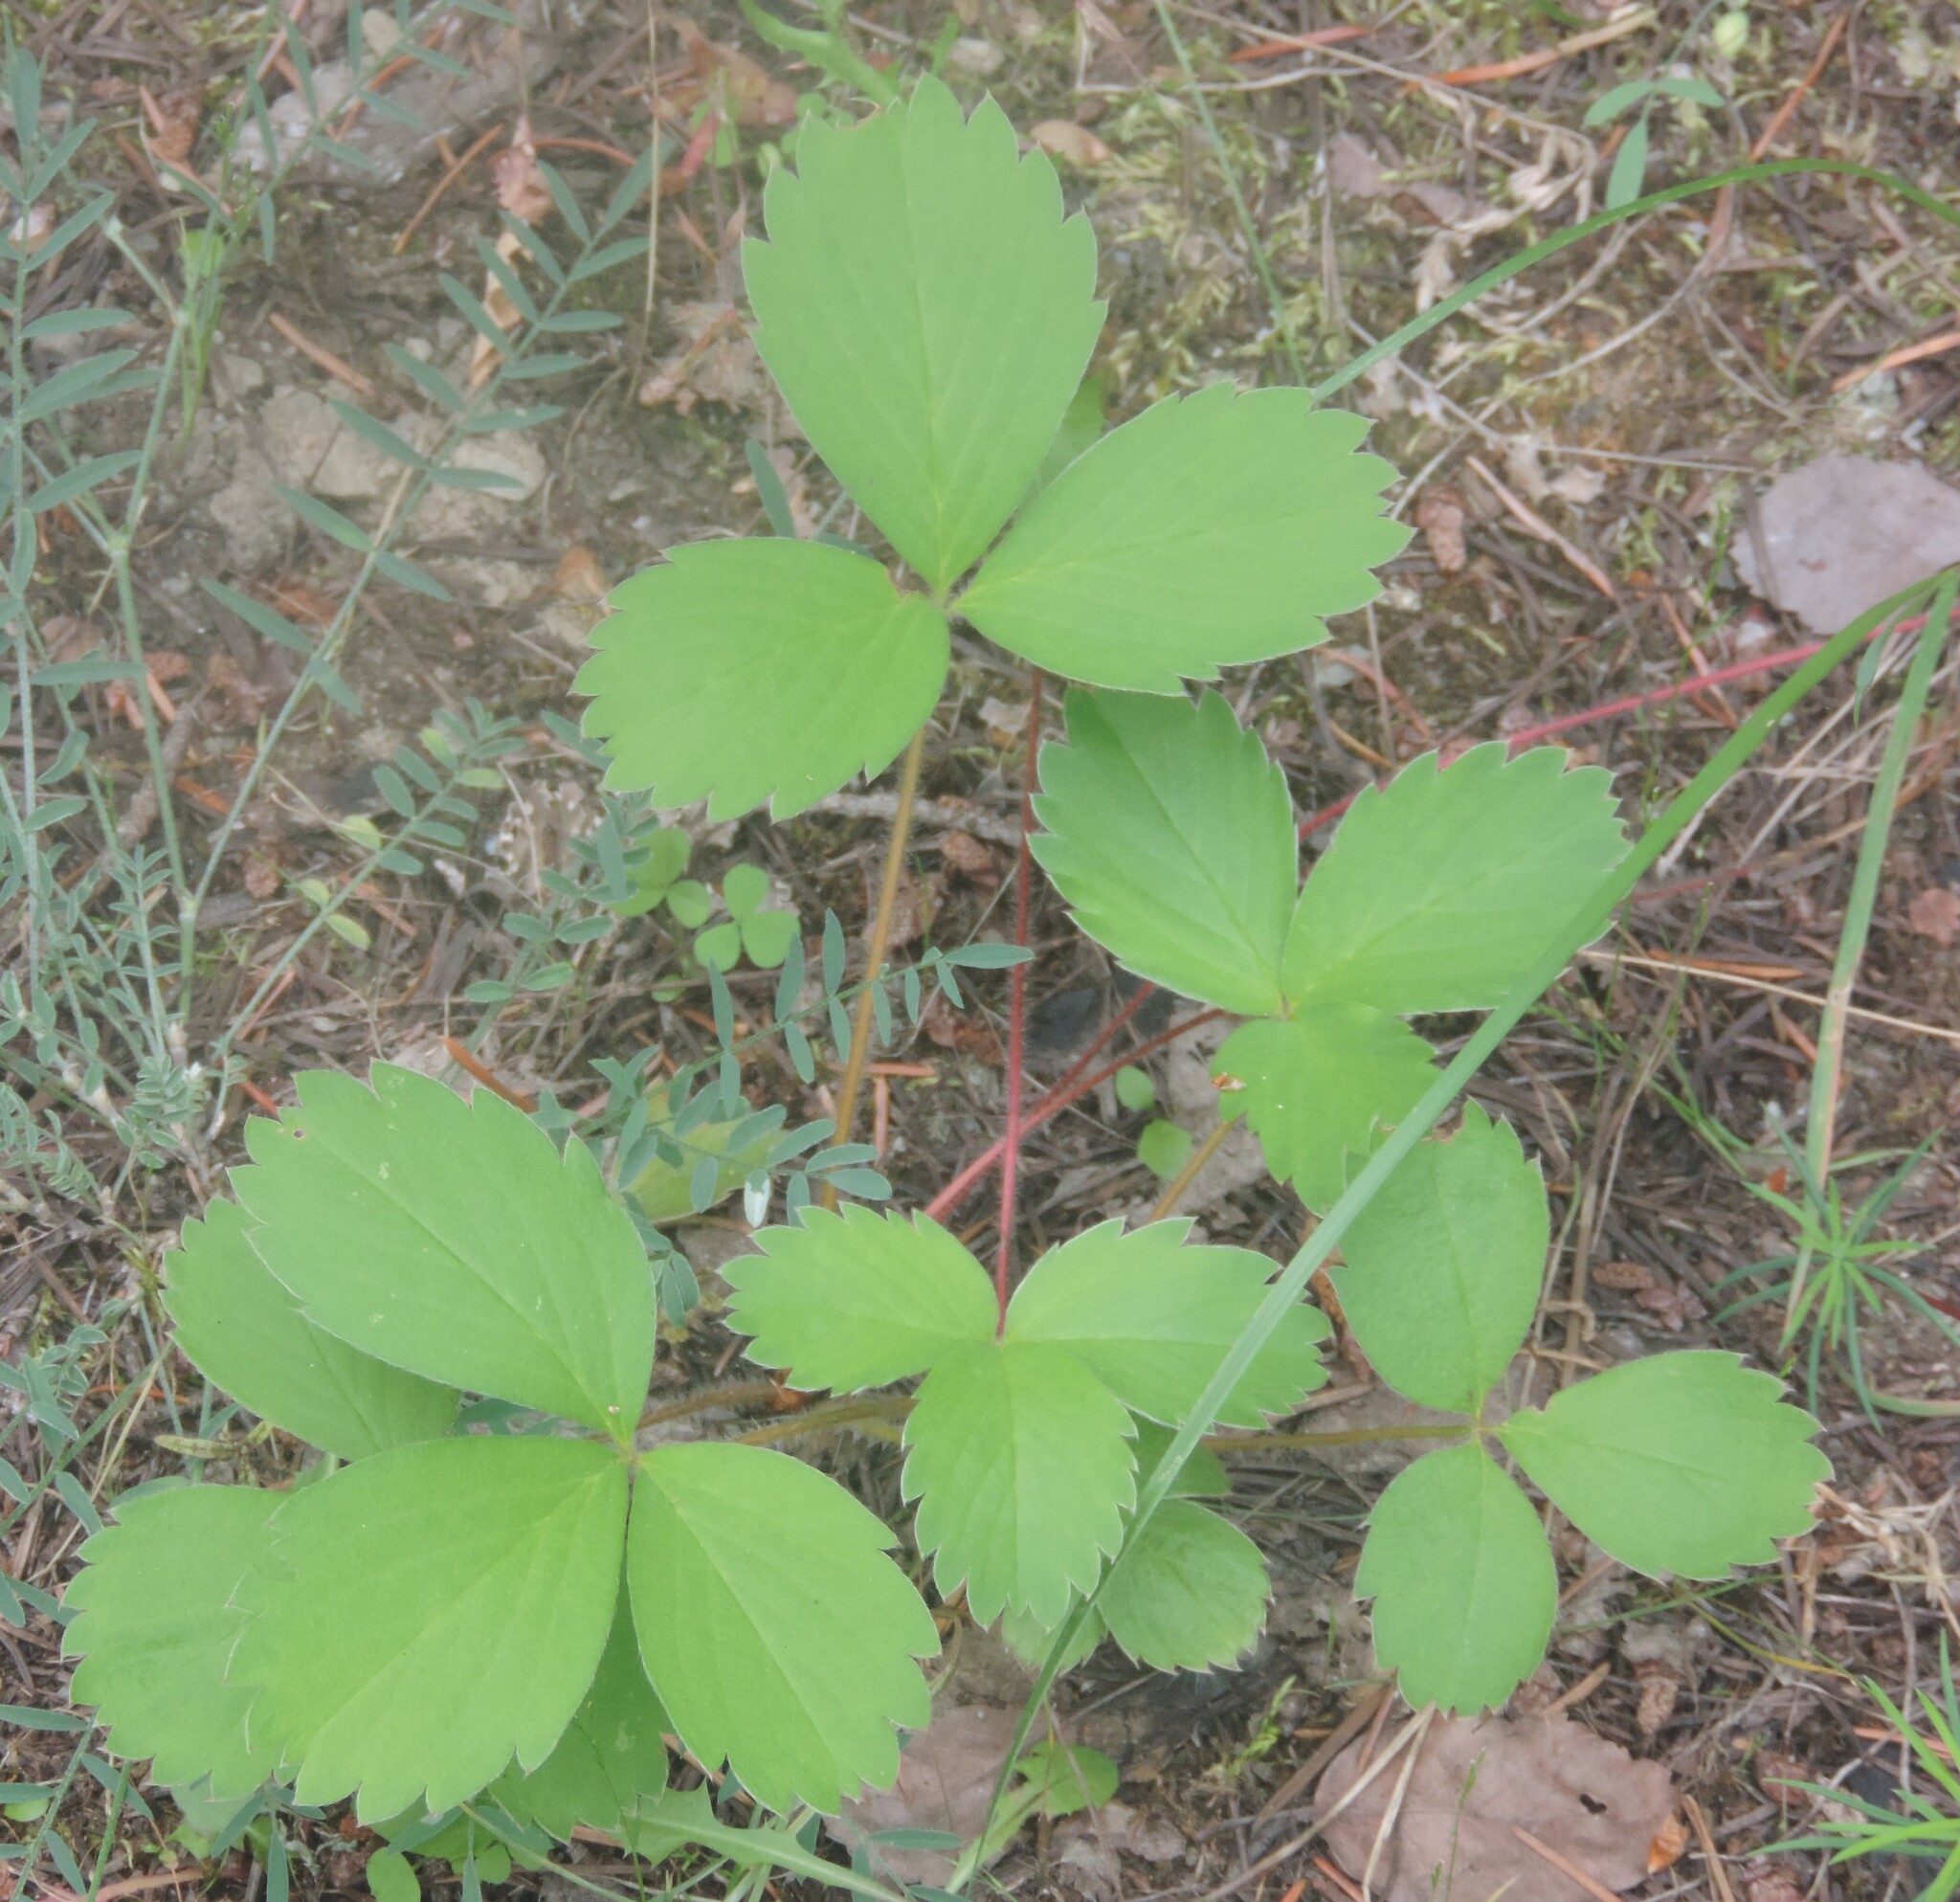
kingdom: Plantae
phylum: Tracheophyta
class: Magnoliopsida
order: Rosales
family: Rosaceae
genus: Fragaria
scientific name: Fragaria virginiana
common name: Thickleaved wild strawberry
